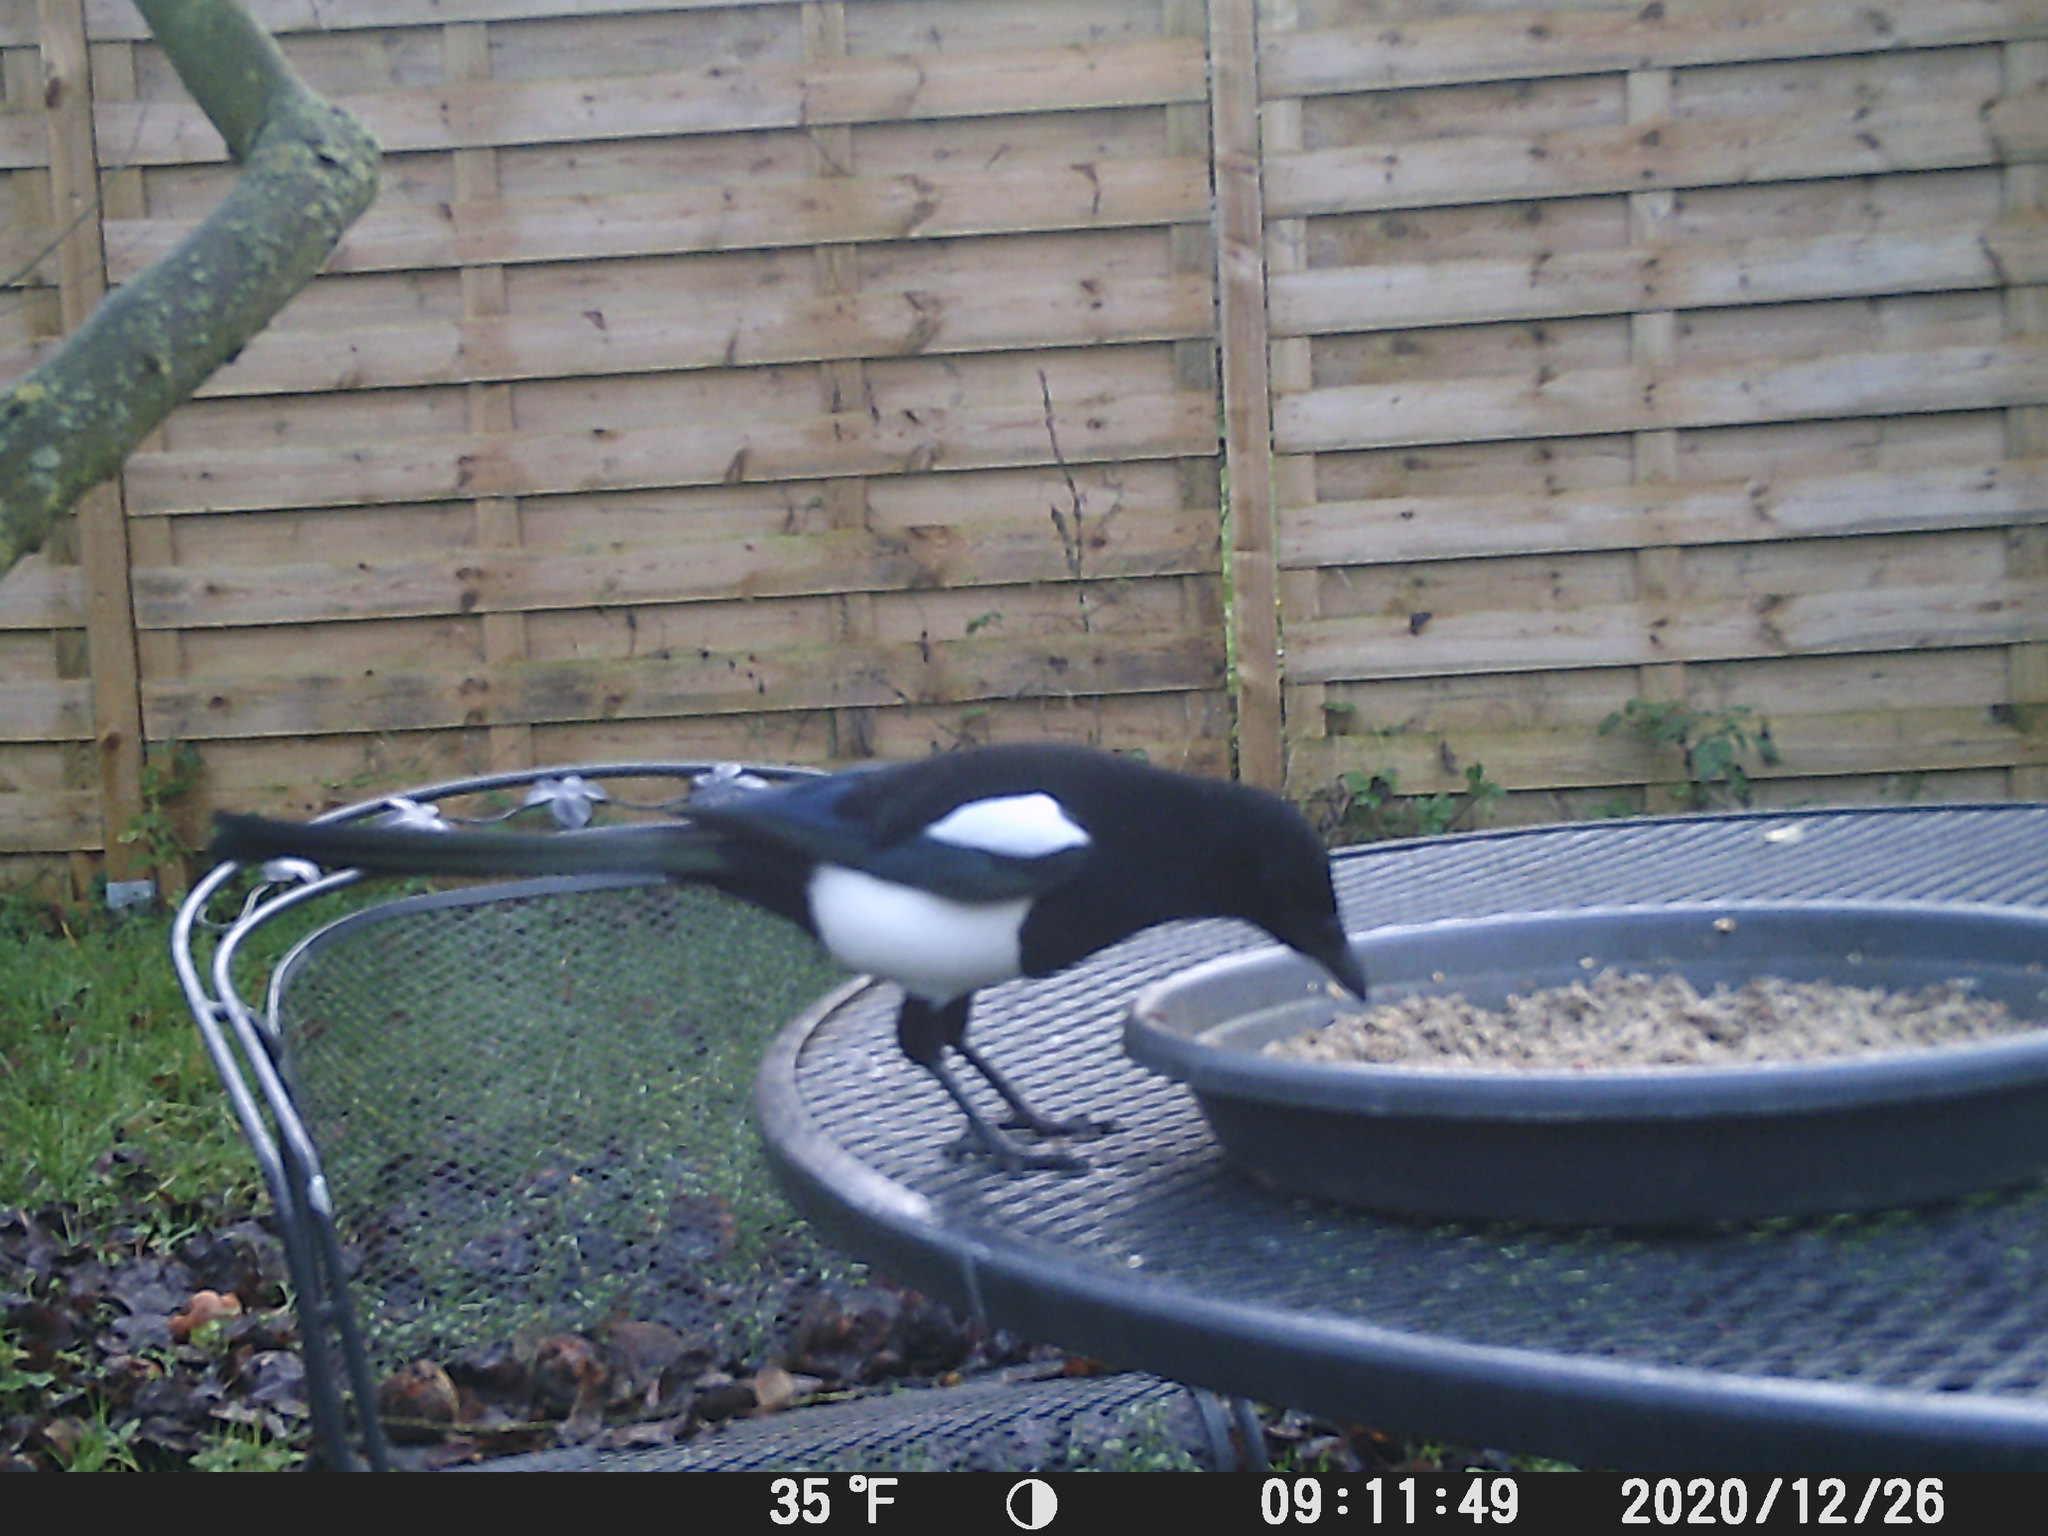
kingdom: Animalia
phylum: Chordata
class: Aves
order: Passeriformes
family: Corvidae
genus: Pica
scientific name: Pica pica
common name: Eurasian magpie
